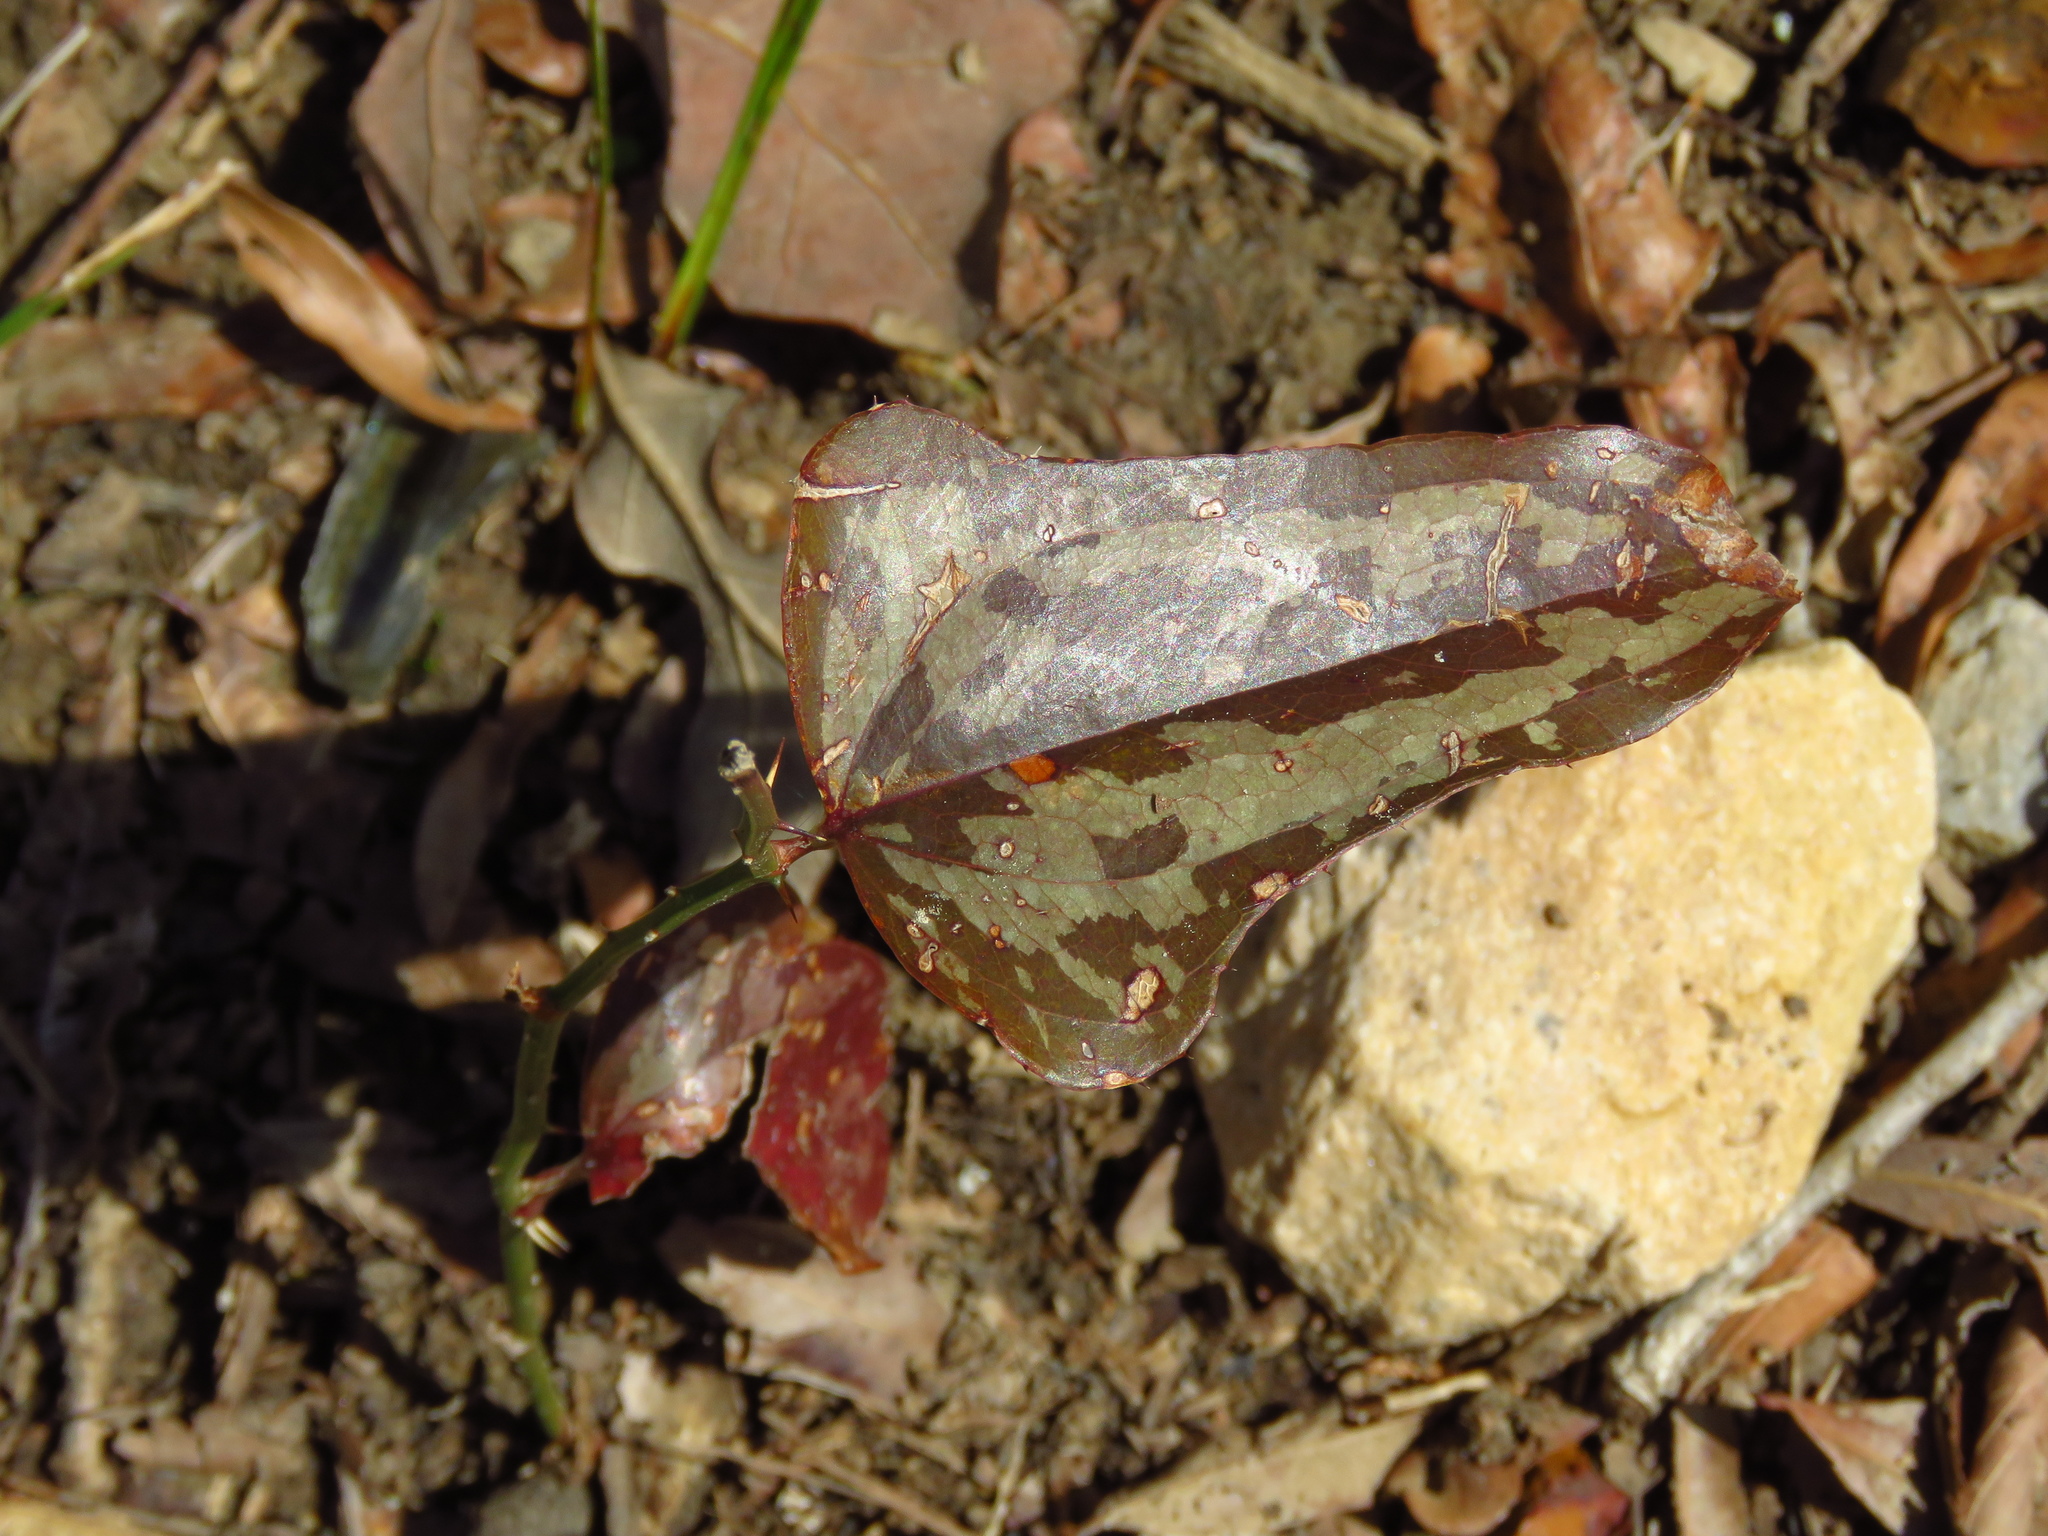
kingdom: Plantae
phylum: Tracheophyta
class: Liliopsida
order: Liliales
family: Smilacaceae
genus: Smilax
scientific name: Smilax bona-nox
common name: Catbrier
